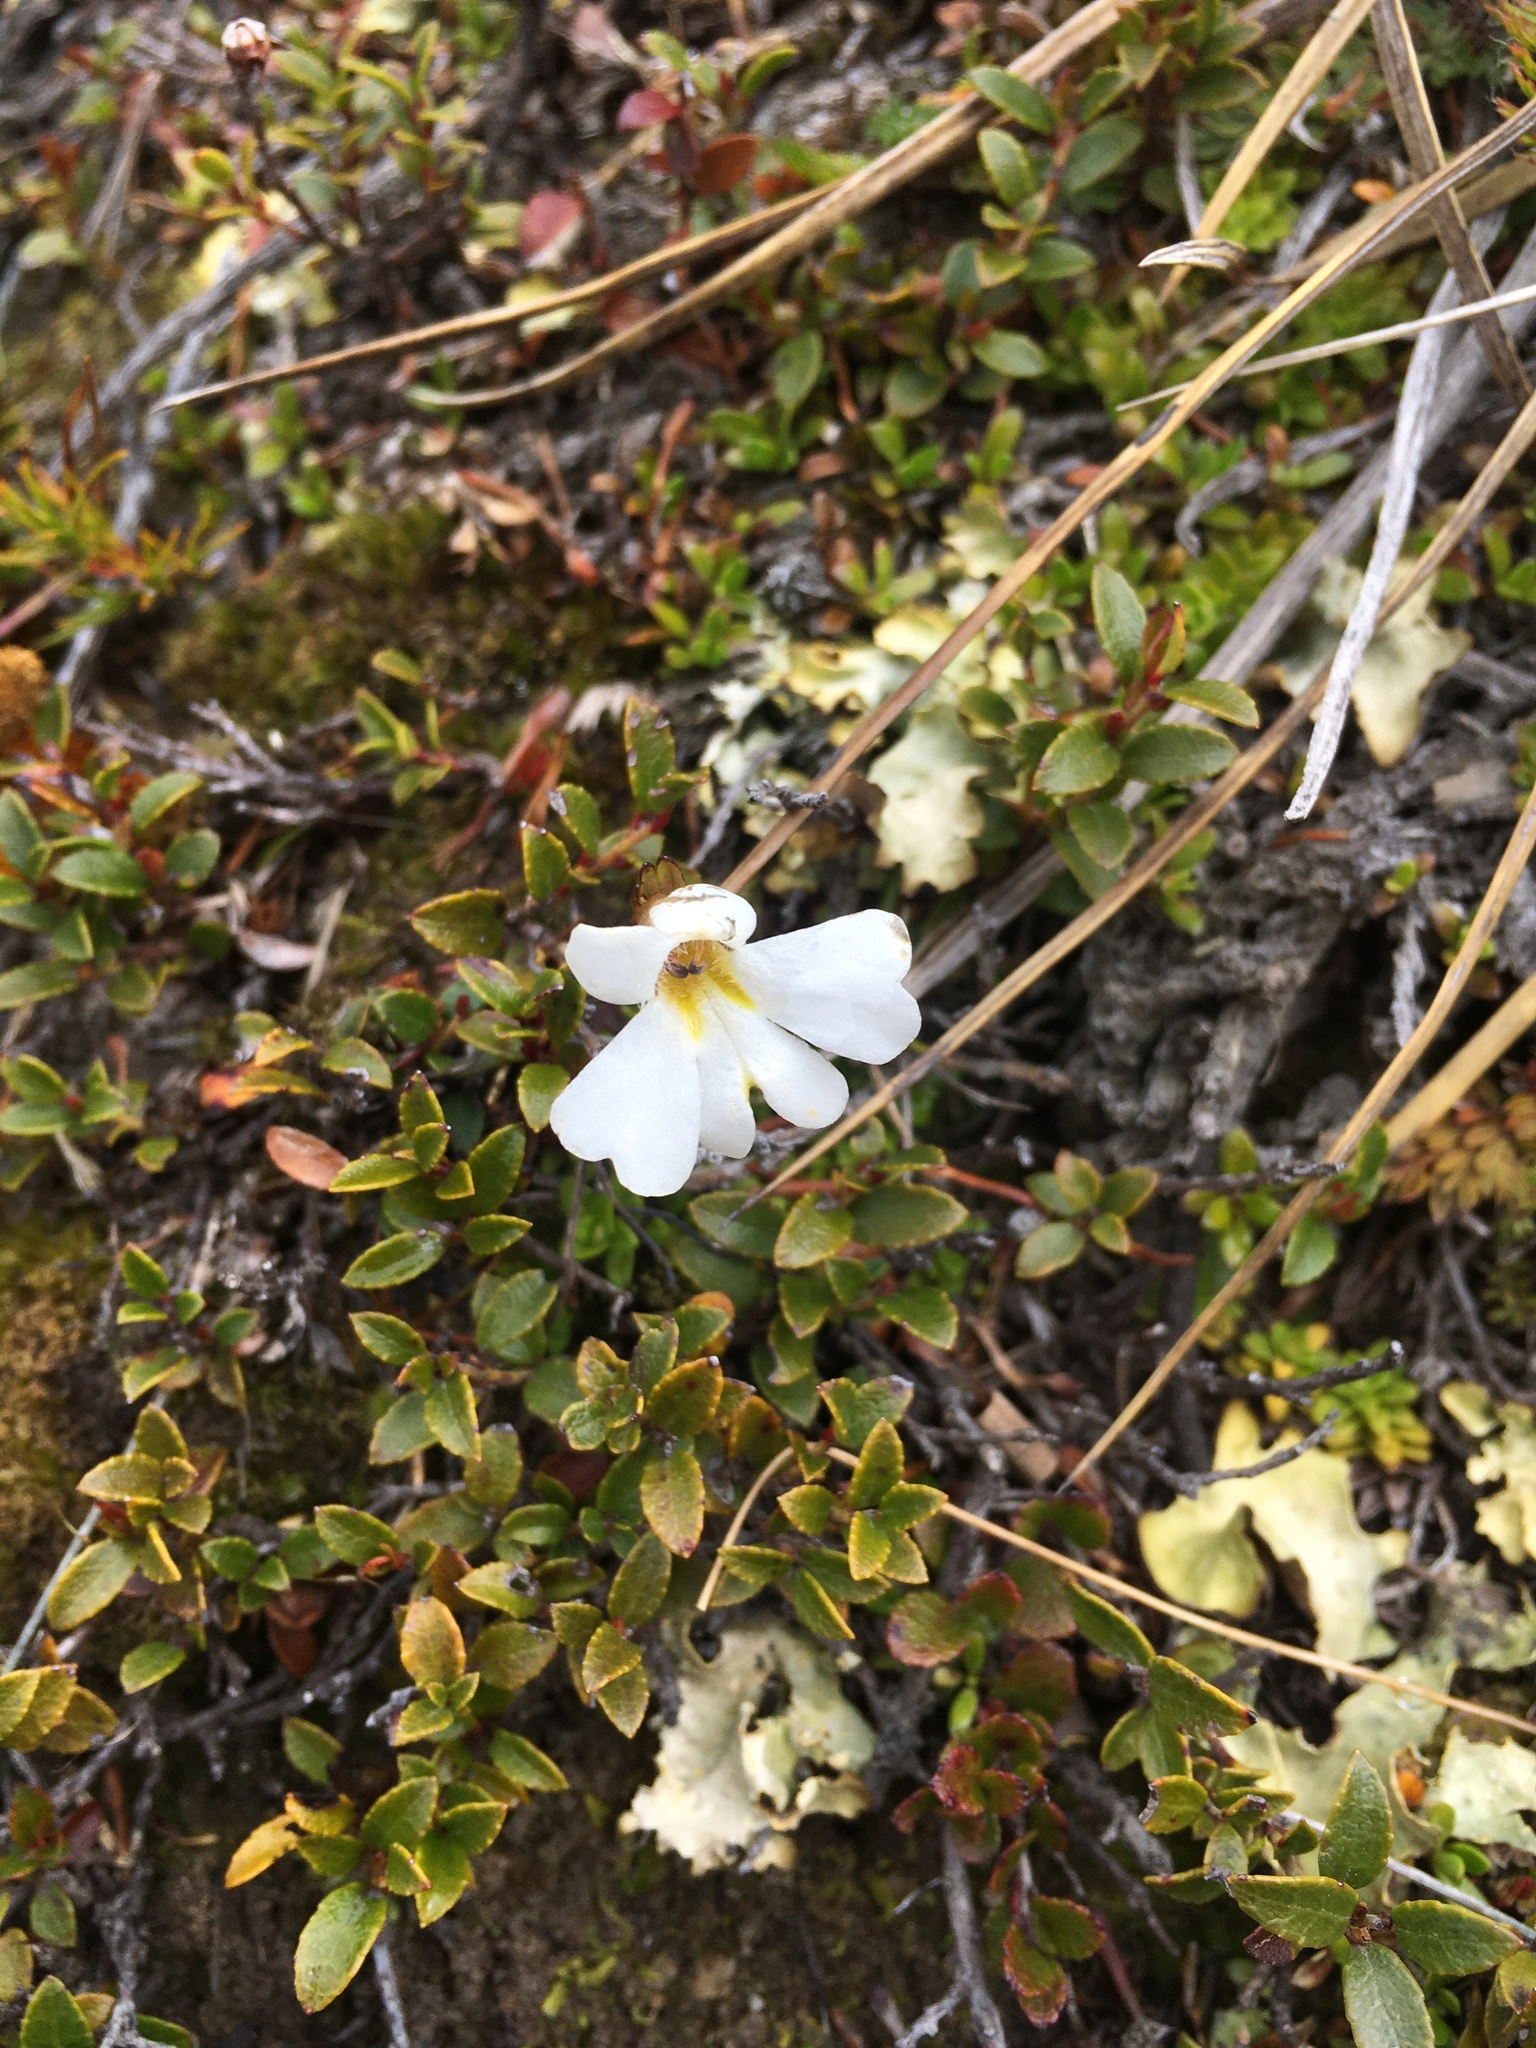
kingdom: Plantae
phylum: Tracheophyta
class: Magnoliopsida
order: Lamiales
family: Plantaginaceae
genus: Ourisia
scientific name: Ourisia caespitosa
